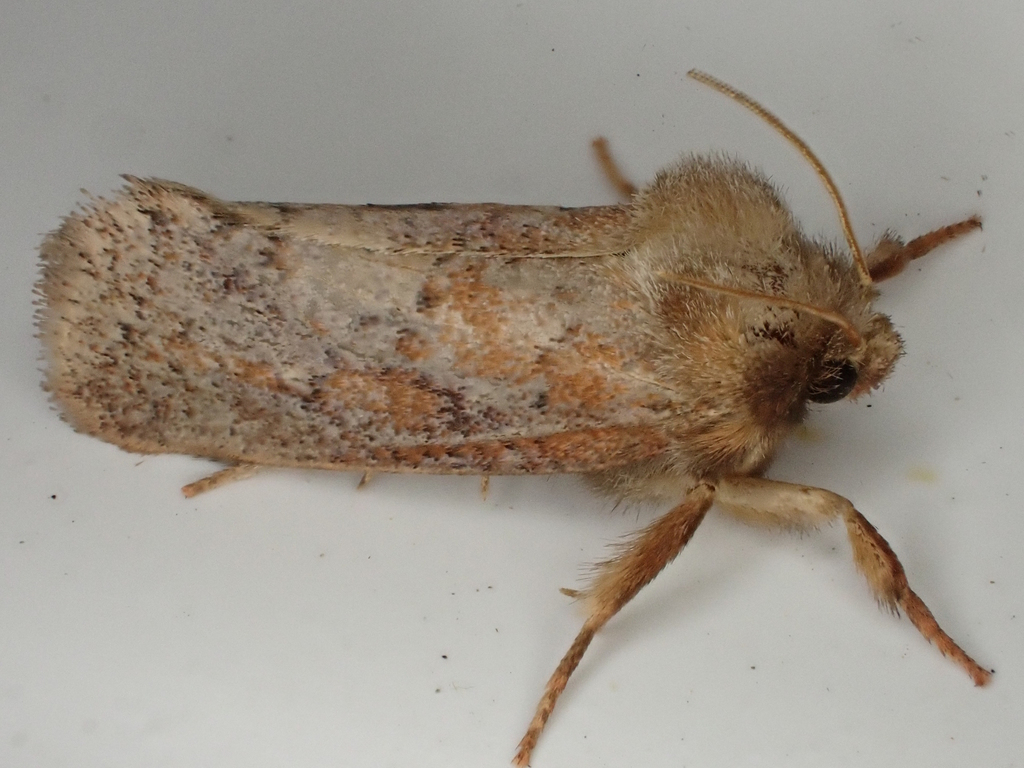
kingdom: Animalia
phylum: Arthropoda
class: Insecta
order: Lepidoptera
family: Tineidae
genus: Acrolophus
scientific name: Acrolophus plumifrontella
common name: Eastern grass tubeworm moth
